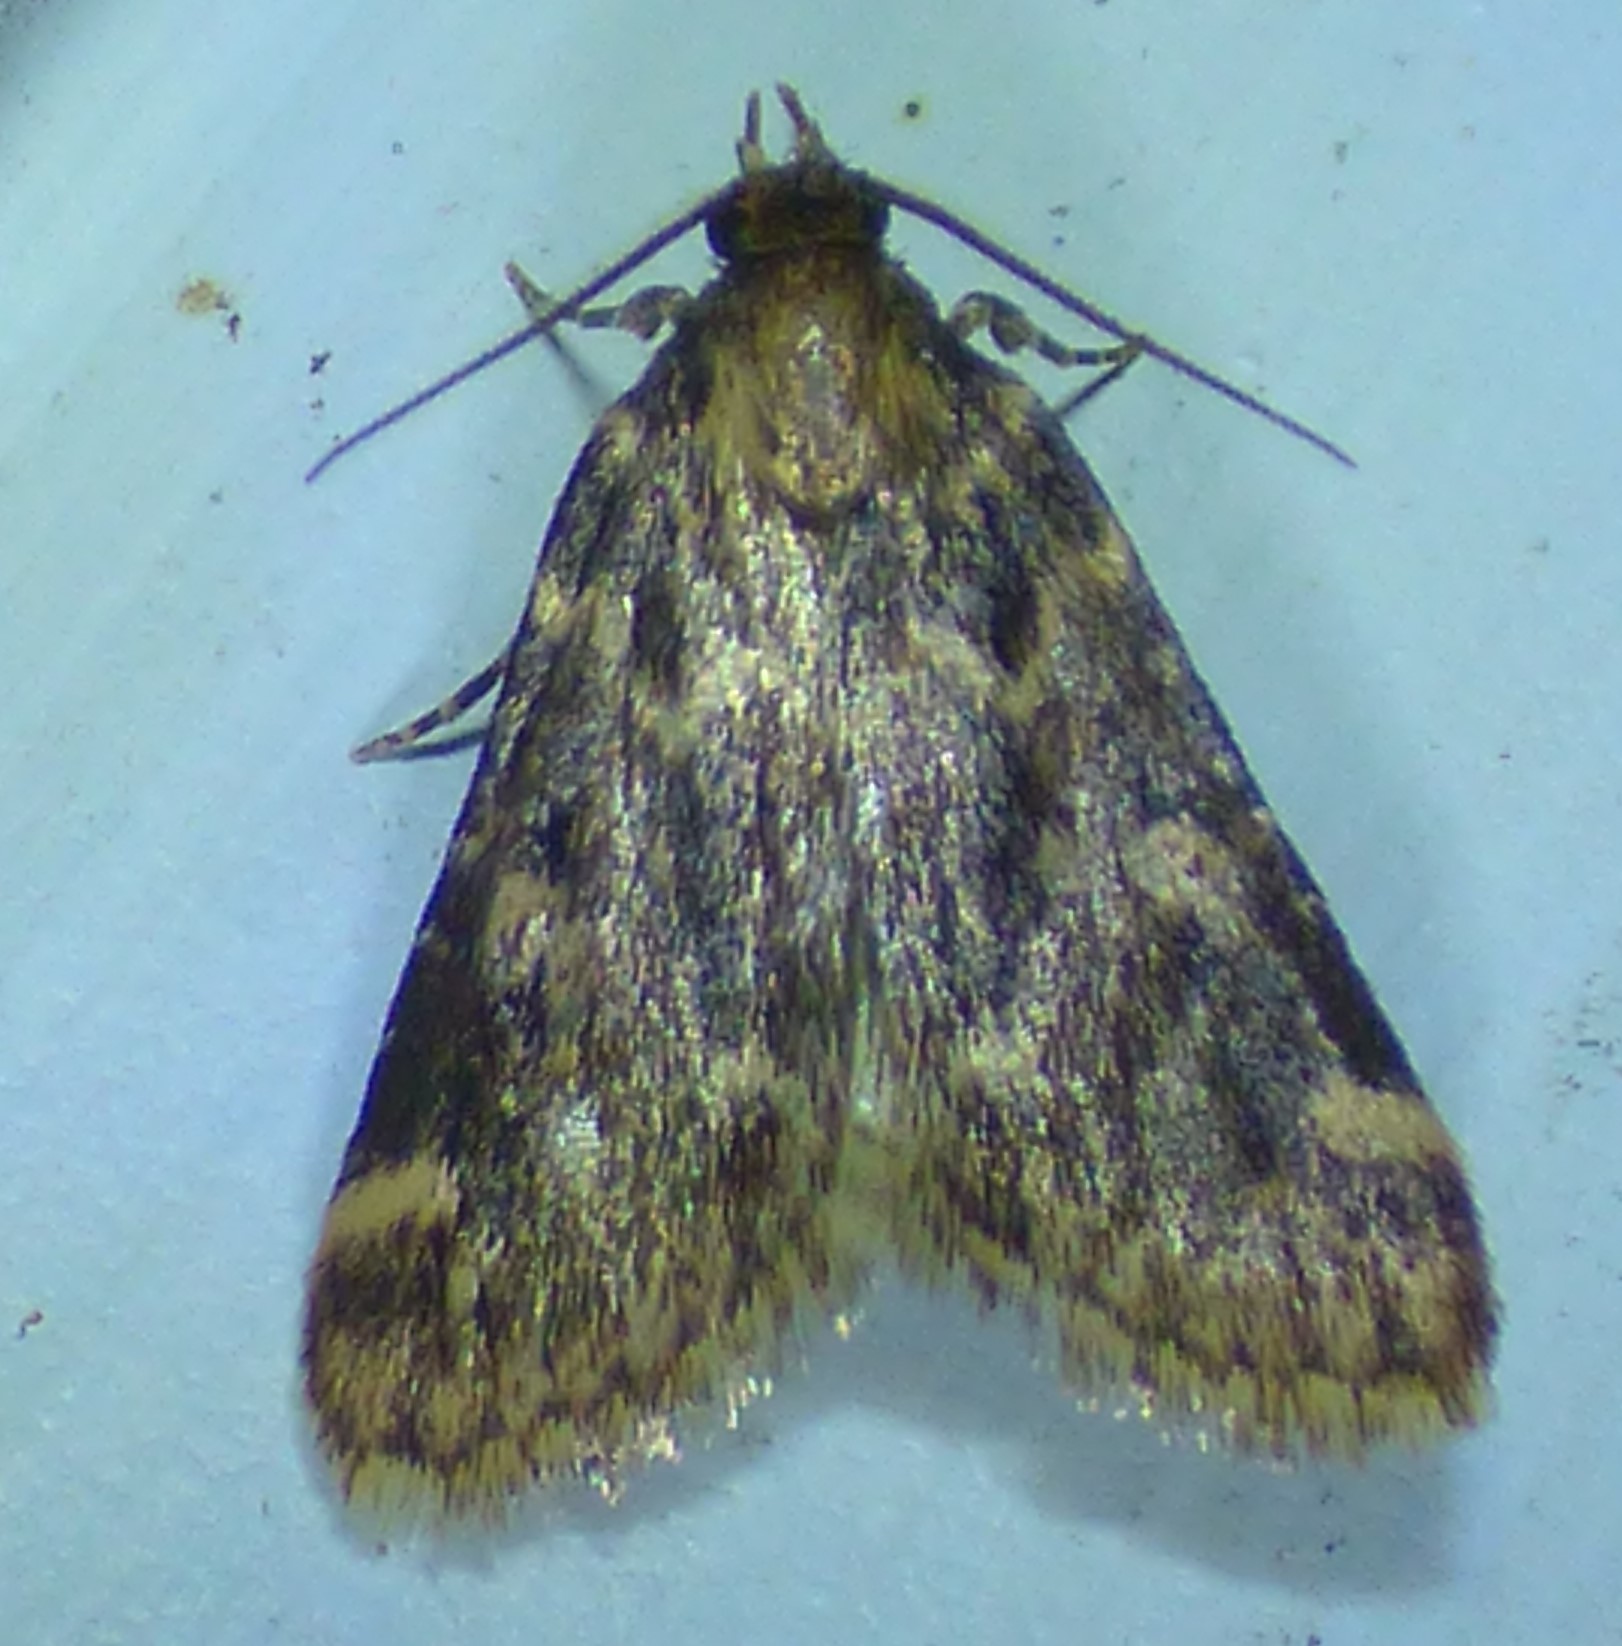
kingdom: Animalia
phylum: Arthropoda
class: Insecta
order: Lepidoptera
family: Pyralidae
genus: Aglossa
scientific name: Aglossa caprealis
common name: Small tabby
